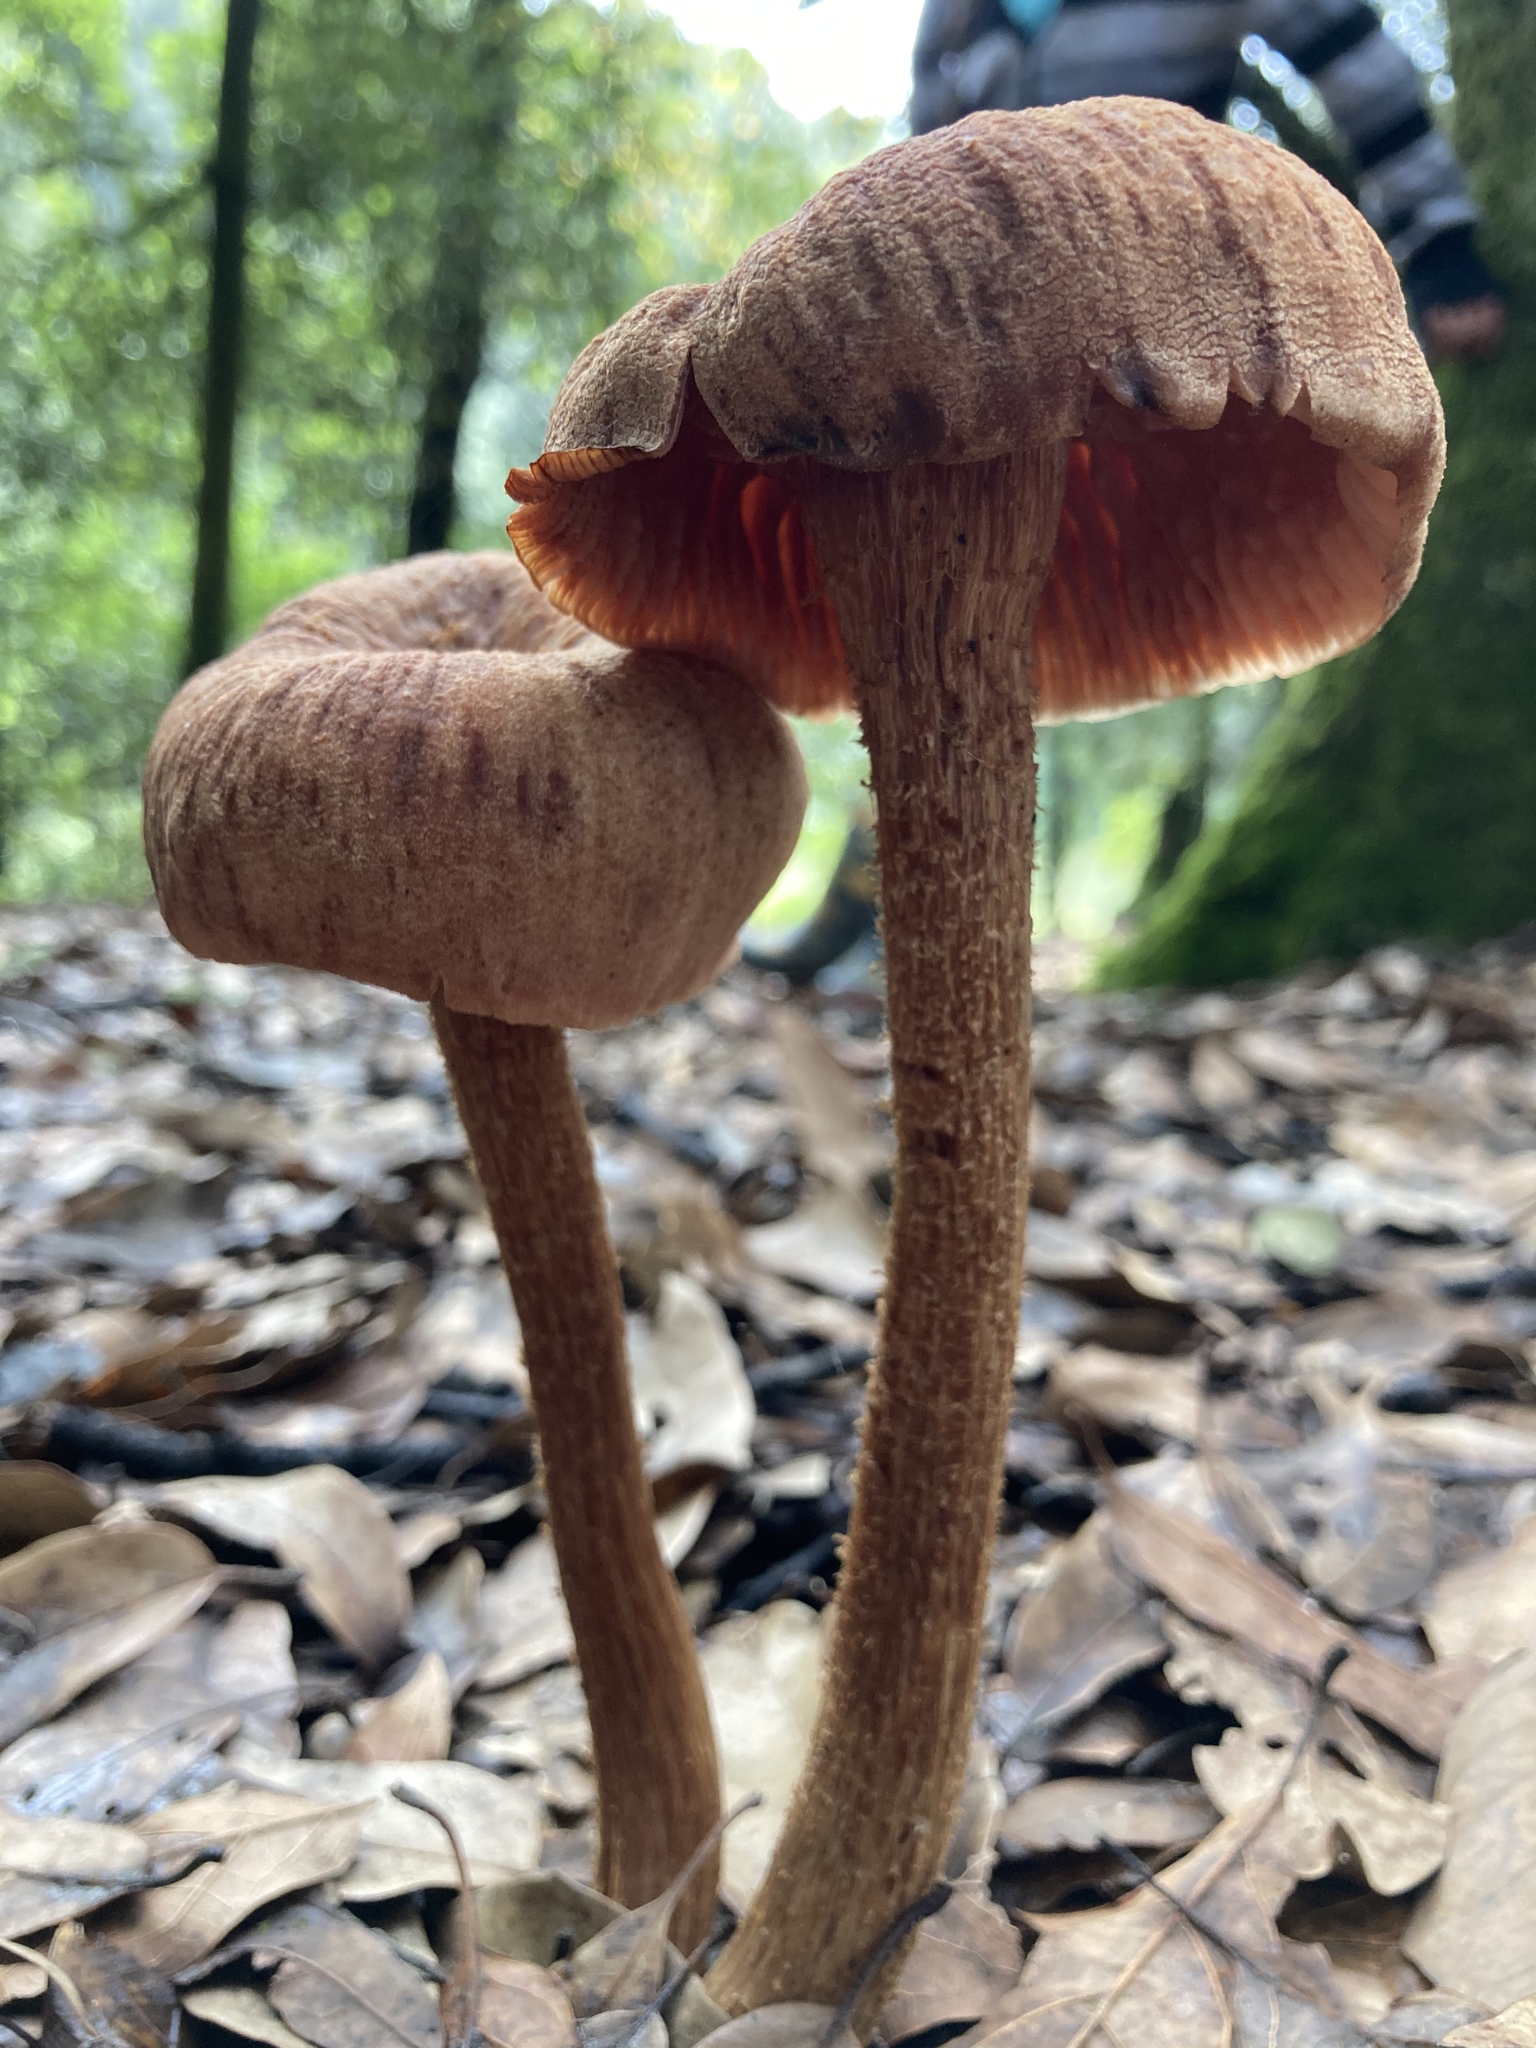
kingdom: Fungi
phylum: Basidiomycota
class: Agaricomycetes
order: Agaricales
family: Hydnangiaceae
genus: Laccaria
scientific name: Laccaria proxima
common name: Scurfy deceiver
